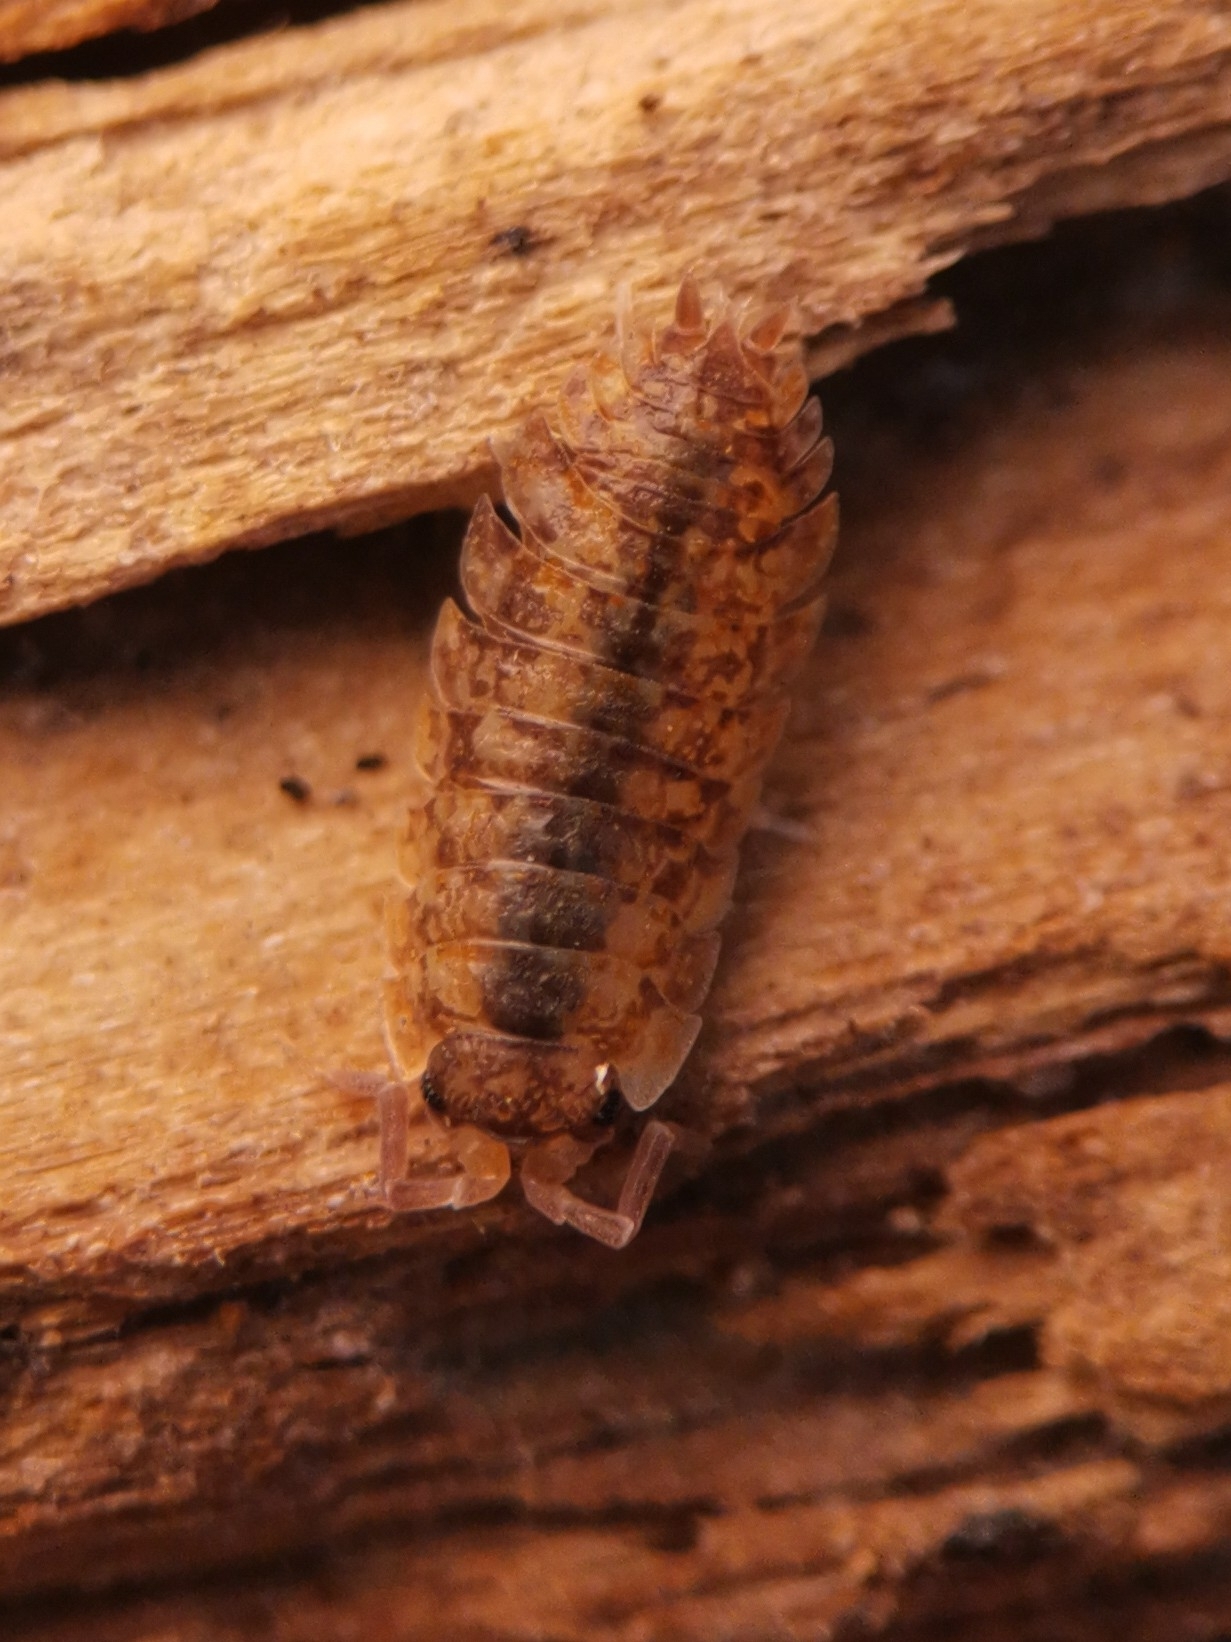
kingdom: Animalia
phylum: Arthropoda
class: Malacostraca
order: Isopoda
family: Porcellionidae
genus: Porcellio
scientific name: Porcellio scaber
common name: Common rough woodlouse
